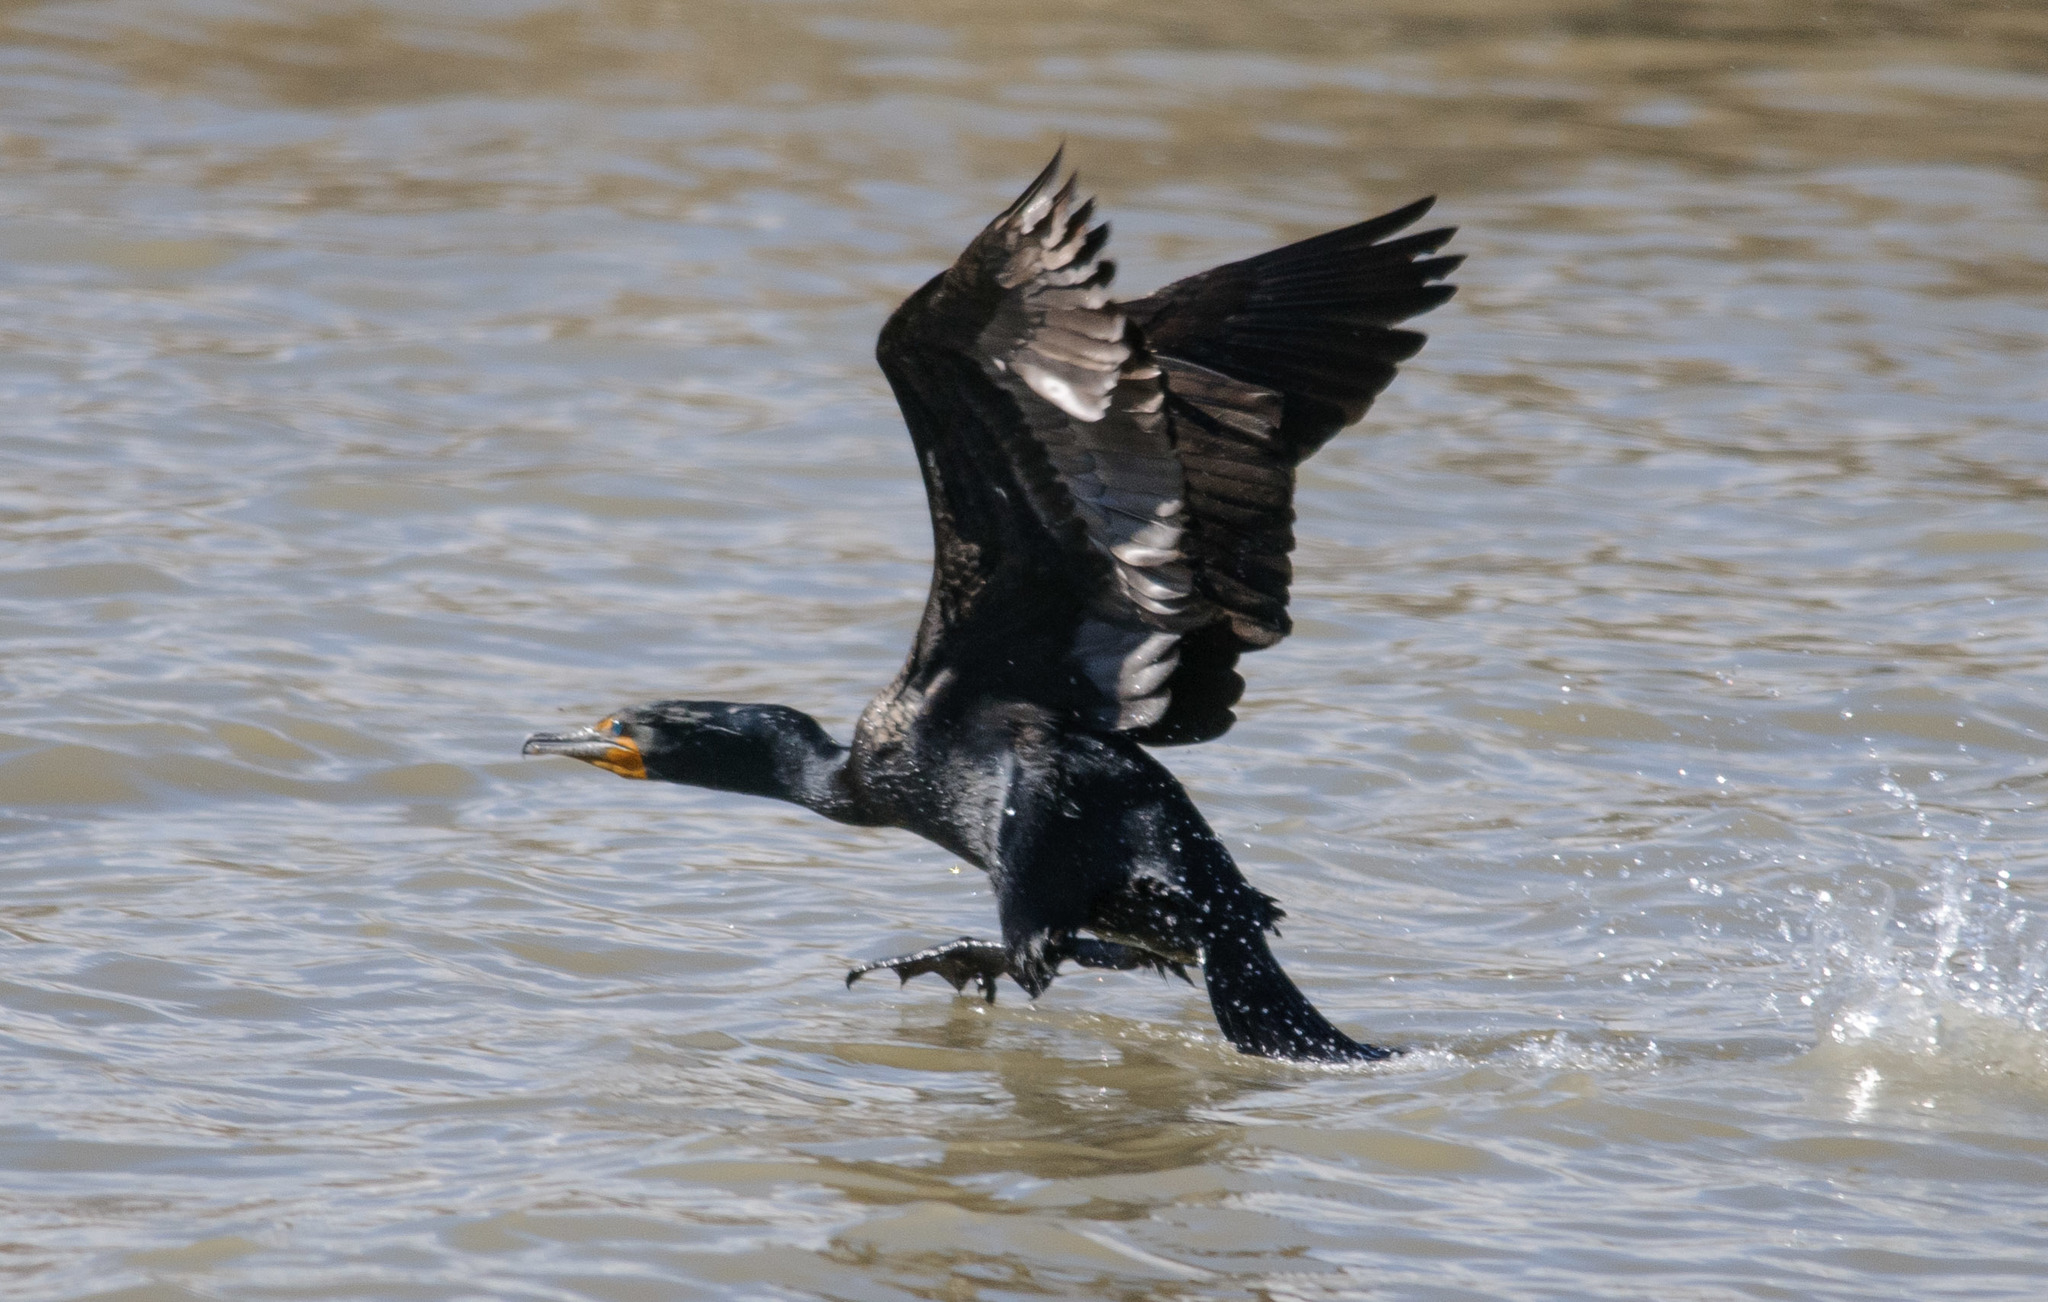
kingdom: Animalia
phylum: Chordata
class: Aves
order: Suliformes
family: Phalacrocoracidae
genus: Phalacrocorax
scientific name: Phalacrocorax auritus
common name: Double-crested cormorant
